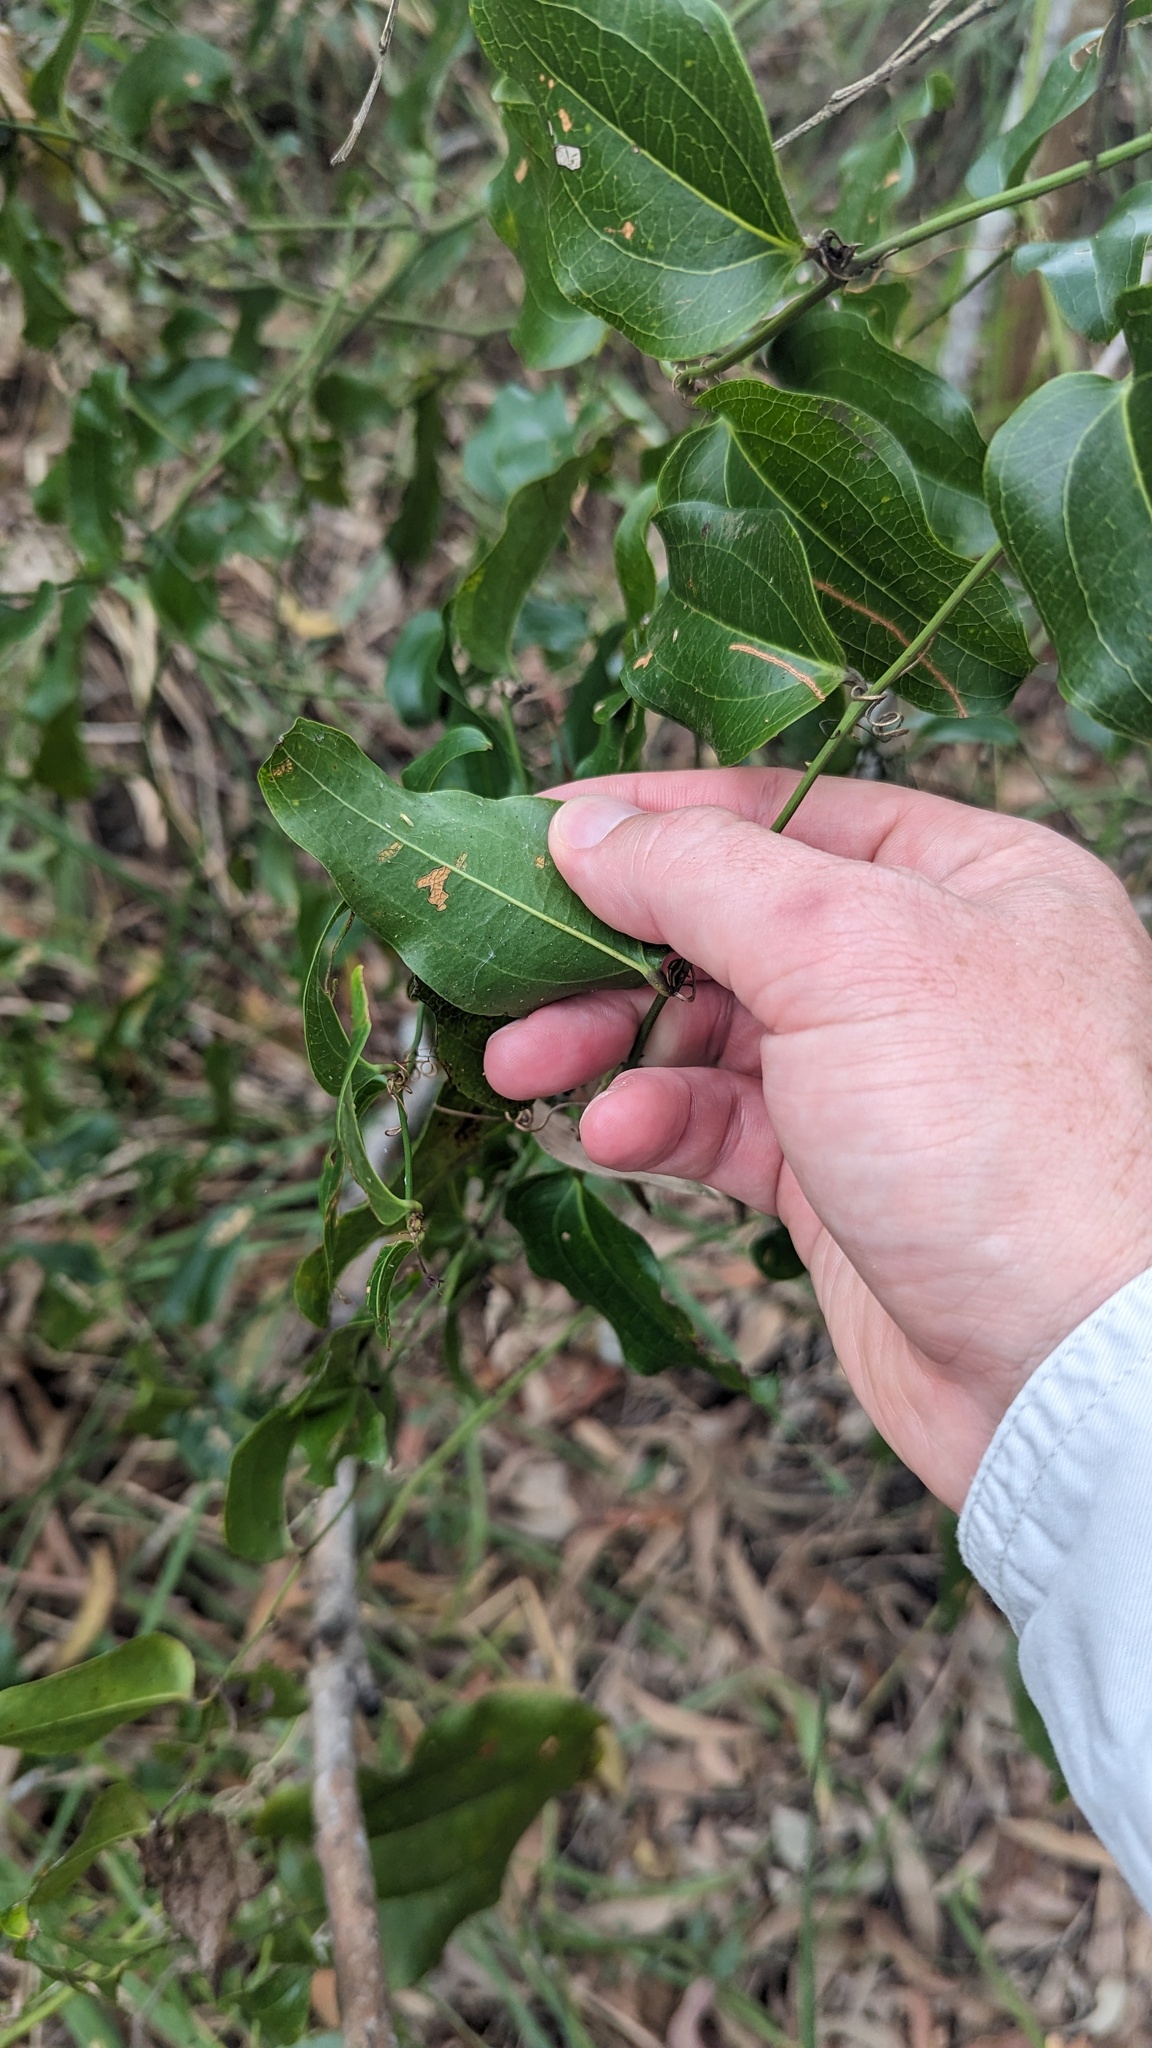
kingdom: Plantae
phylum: Tracheophyta
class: Liliopsida
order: Liliales
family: Smilacaceae
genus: Smilax
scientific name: Smilax australis
